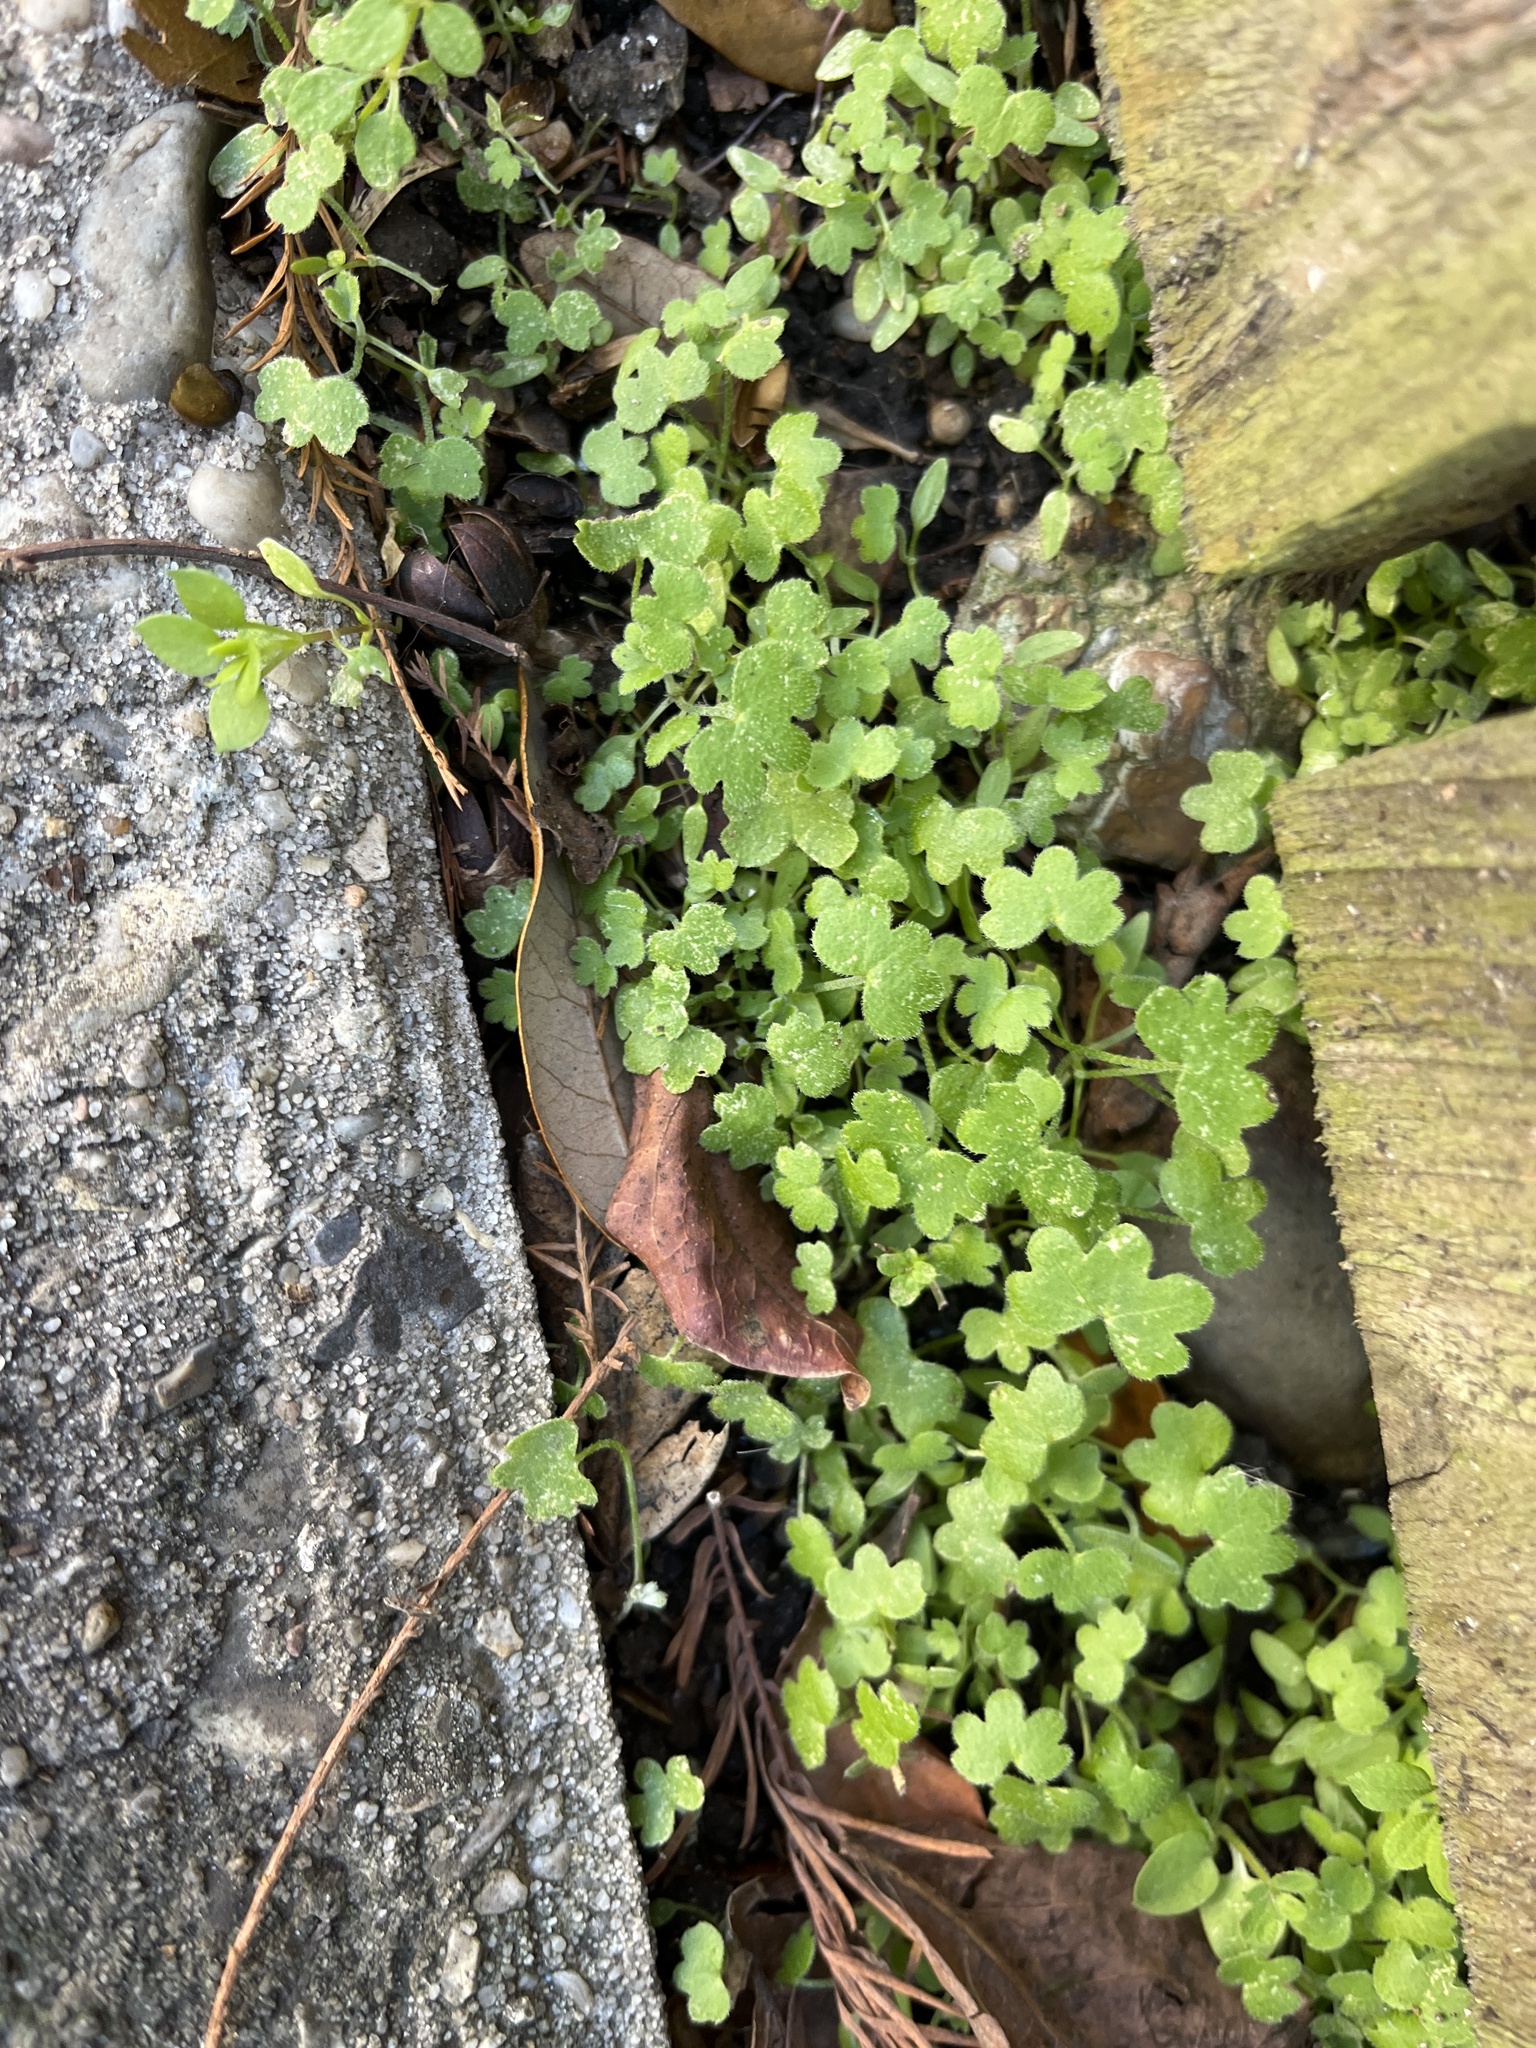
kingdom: Plantae
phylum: Tracheophyta
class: Magnoliopsida
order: Apiales
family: Apiaceae
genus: Bowlesia
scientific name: Bowlesia incana
